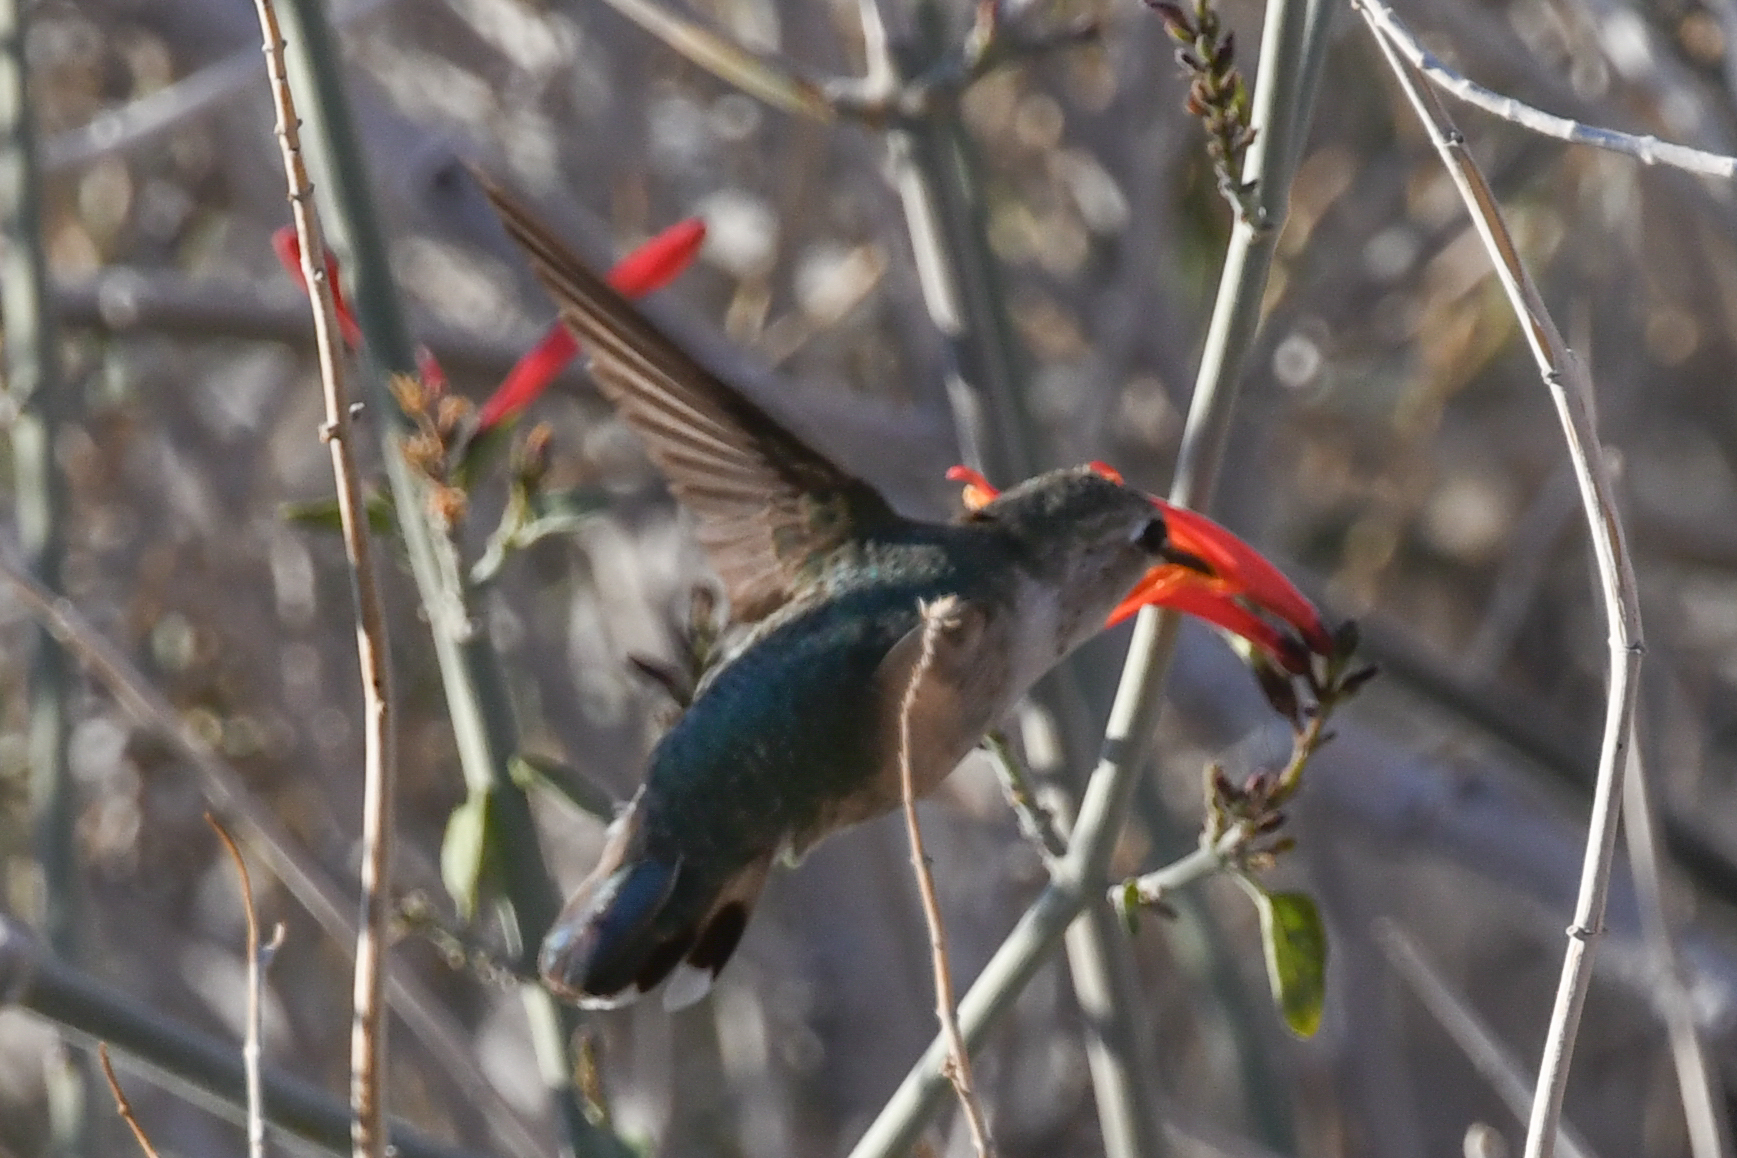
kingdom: Animalia
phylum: Chordata
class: Aves
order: Apodiformes
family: Trochilidae
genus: Calypte
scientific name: Calypte costae
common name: Costa's hummingbird
